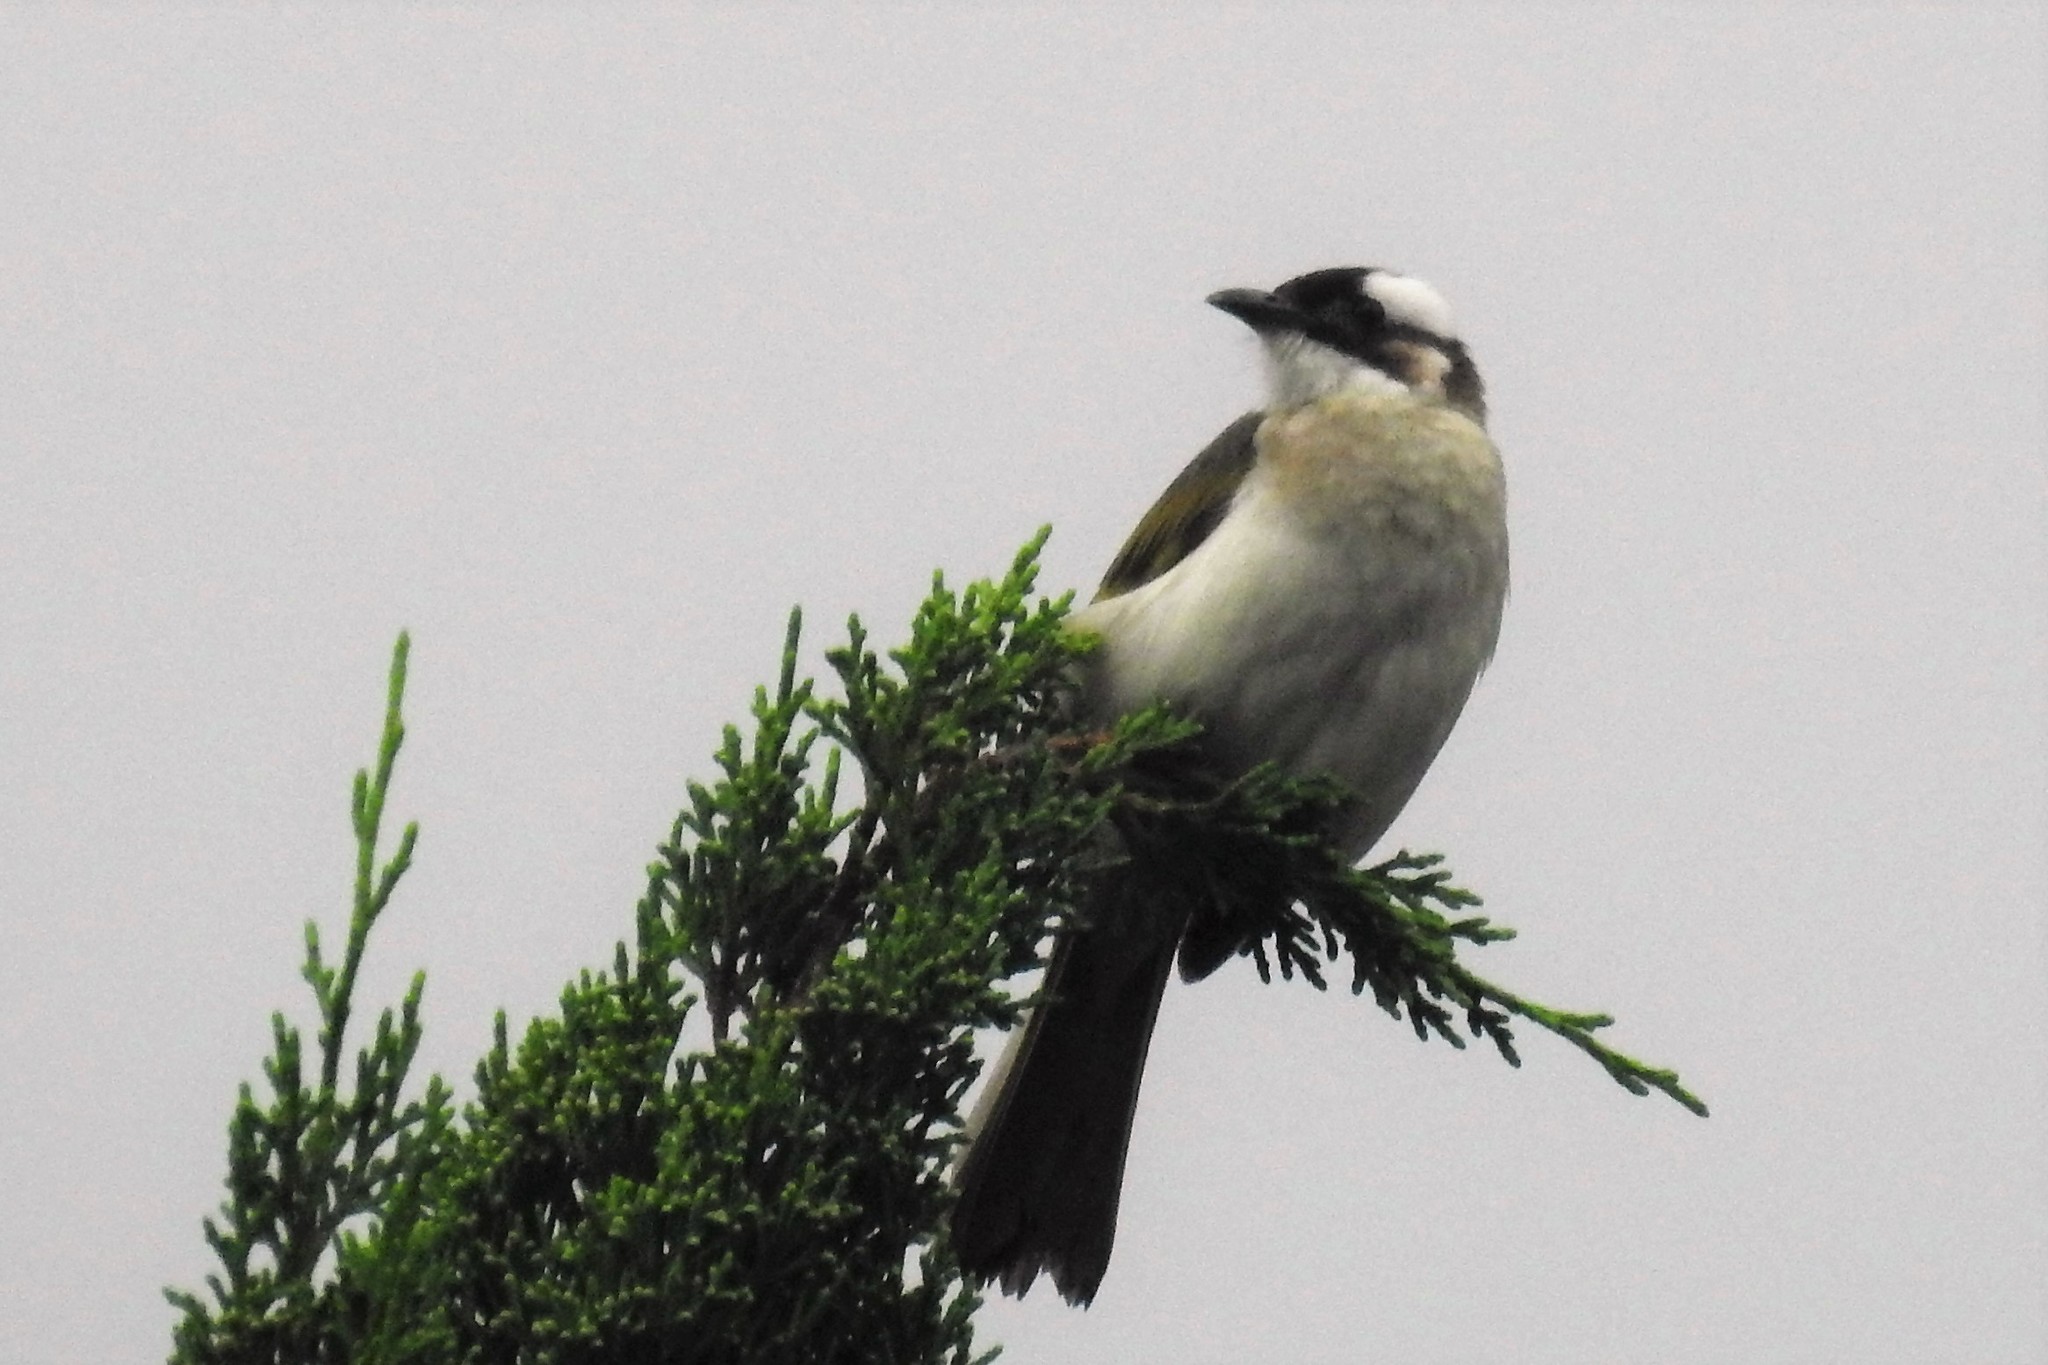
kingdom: Animalia
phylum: Chordata
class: Aves
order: Passeriformes
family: Pycnonotidae
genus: Pycnonotus
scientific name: Pycnonotus sinensis
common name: Light-vented bulbul
